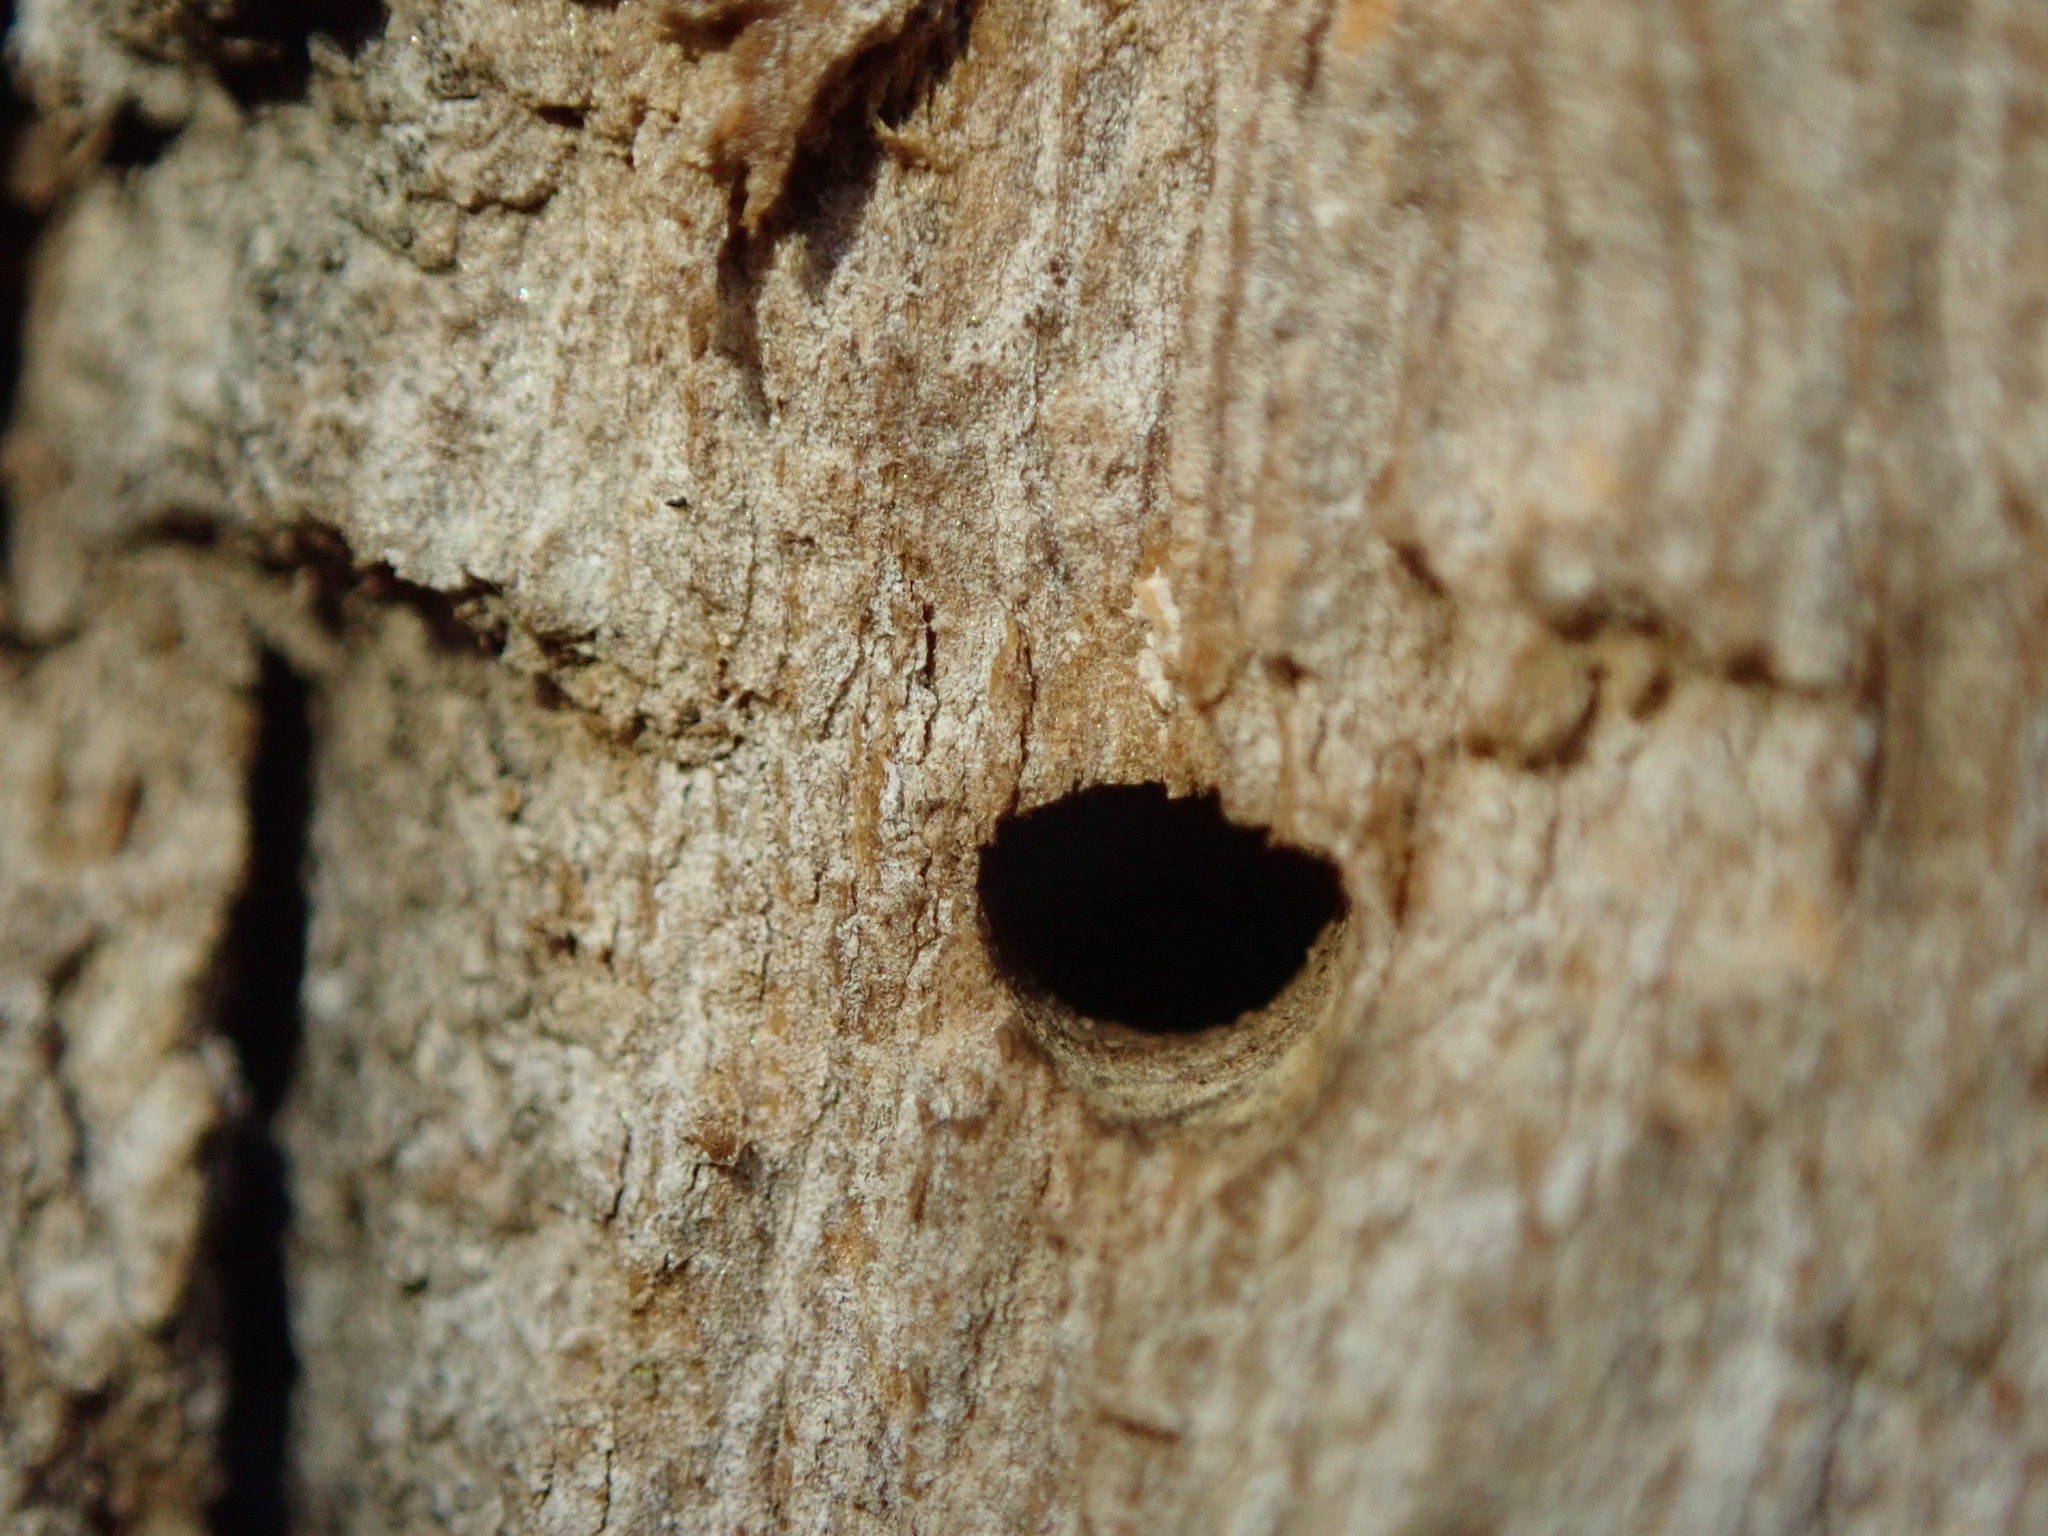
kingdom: Animalia
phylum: Arthropoda
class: Insecta
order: Coleoptera
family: Buprestidae
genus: Agrilus
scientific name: Agrilus planipennis
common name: Emerald ash borer
